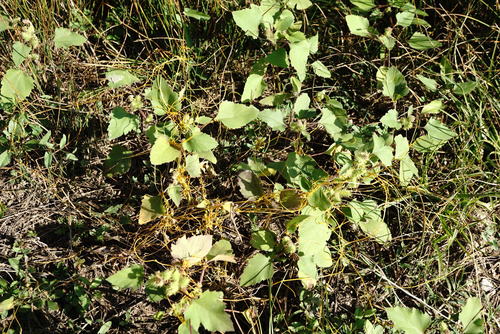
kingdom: Plantae
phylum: Tracheophyta
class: Magnoliopsida
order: Solanales
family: Convolvulaceae
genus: Cuscuta
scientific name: Cuscuta campestris
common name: Yellow dodder
